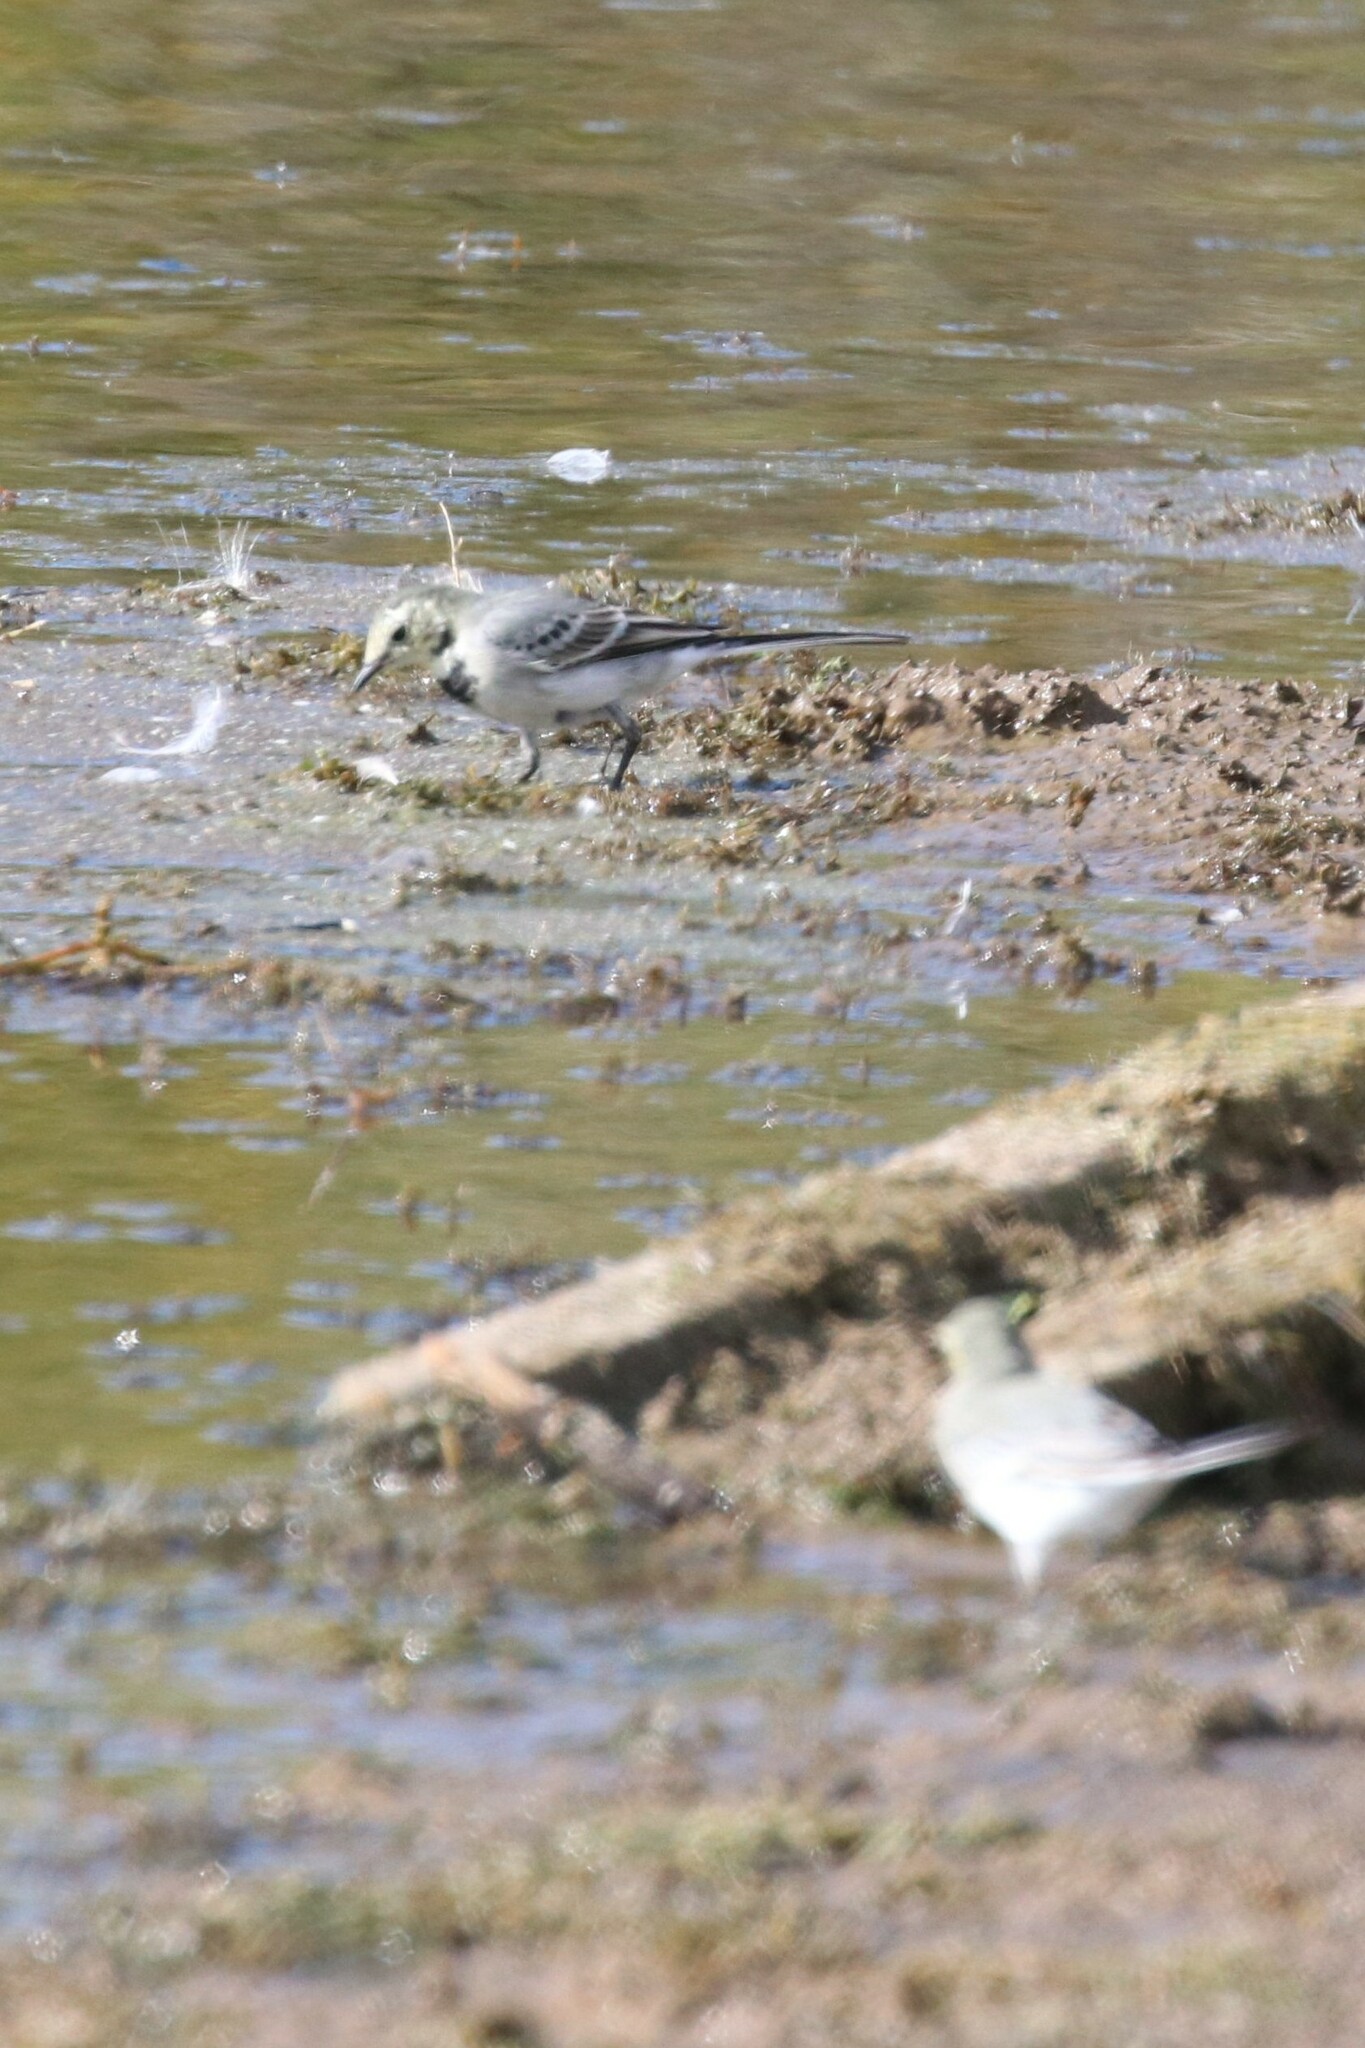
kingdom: Animalia
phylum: Chordata
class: Aves
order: Passeriformes
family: Motacillidae
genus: Motacilla
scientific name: Motacilla alba
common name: White wagtail
